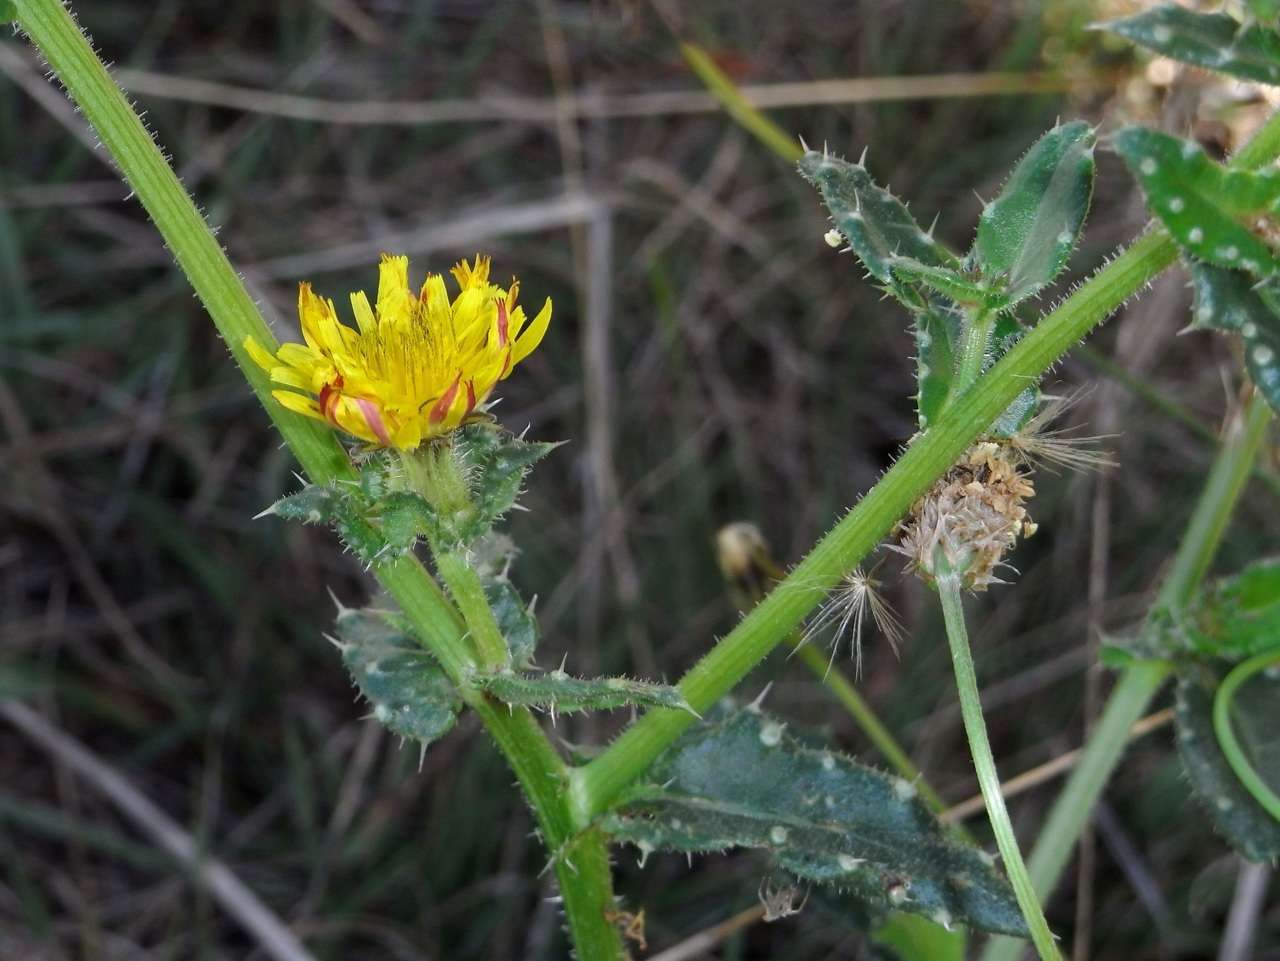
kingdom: Plantae
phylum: Tracheophyta
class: Magnoliopsida
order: Asterales
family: Asteraceae
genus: Helminthotheca
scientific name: Helminthotheca echioides
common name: Ox-tongue
